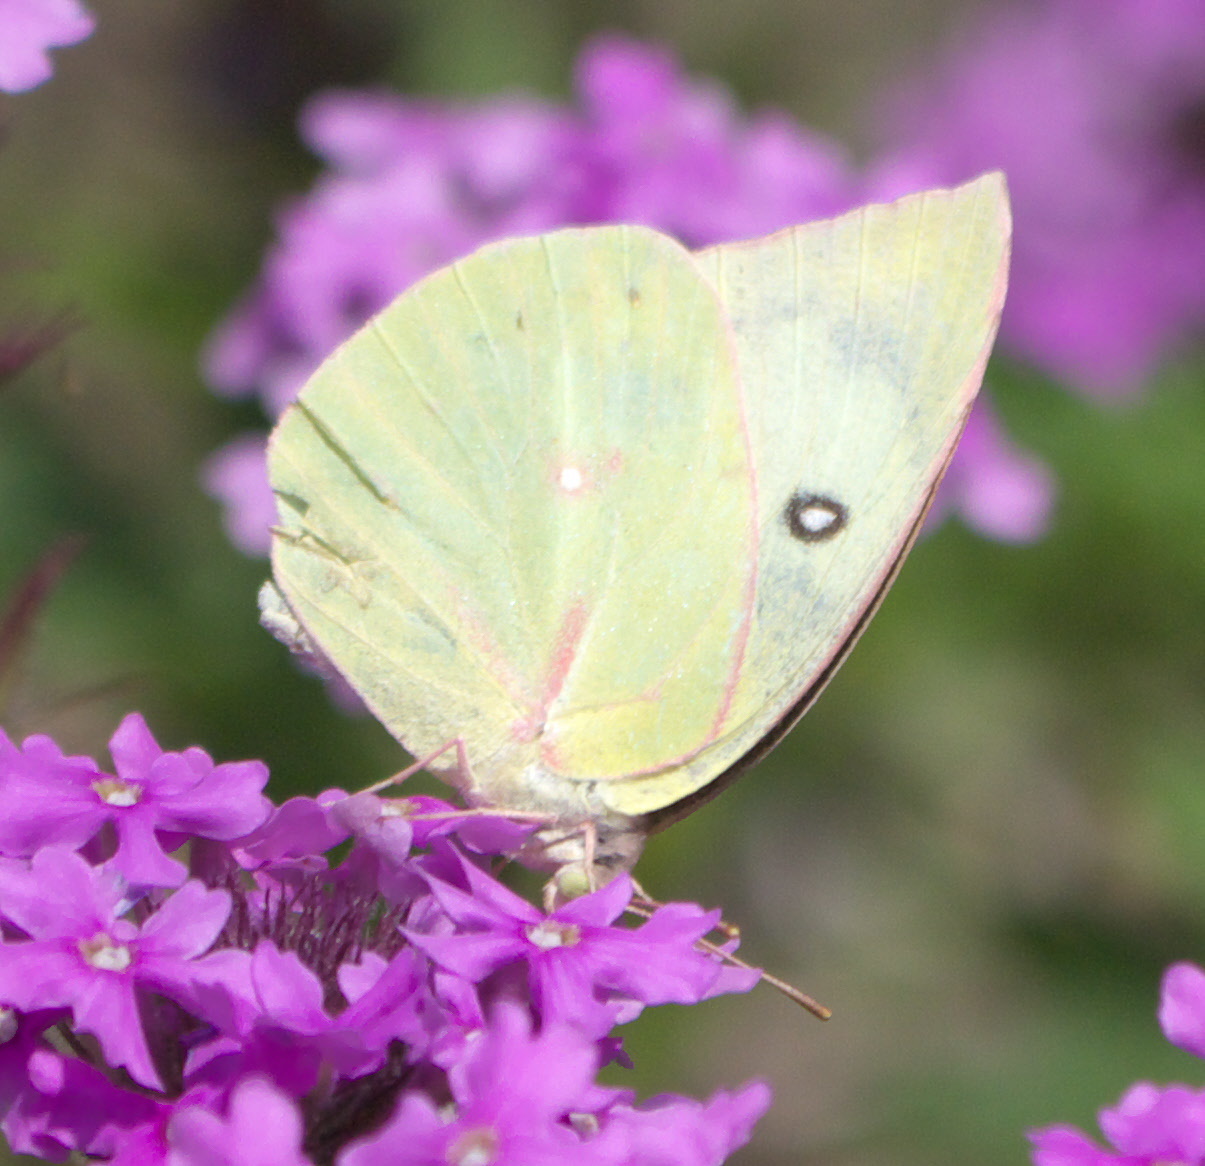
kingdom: Animalia
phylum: Arthropoda
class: Insecta
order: Lepidoptera
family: Pieridae
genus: Zerene
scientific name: Zerene cesonia
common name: Southern dogface
